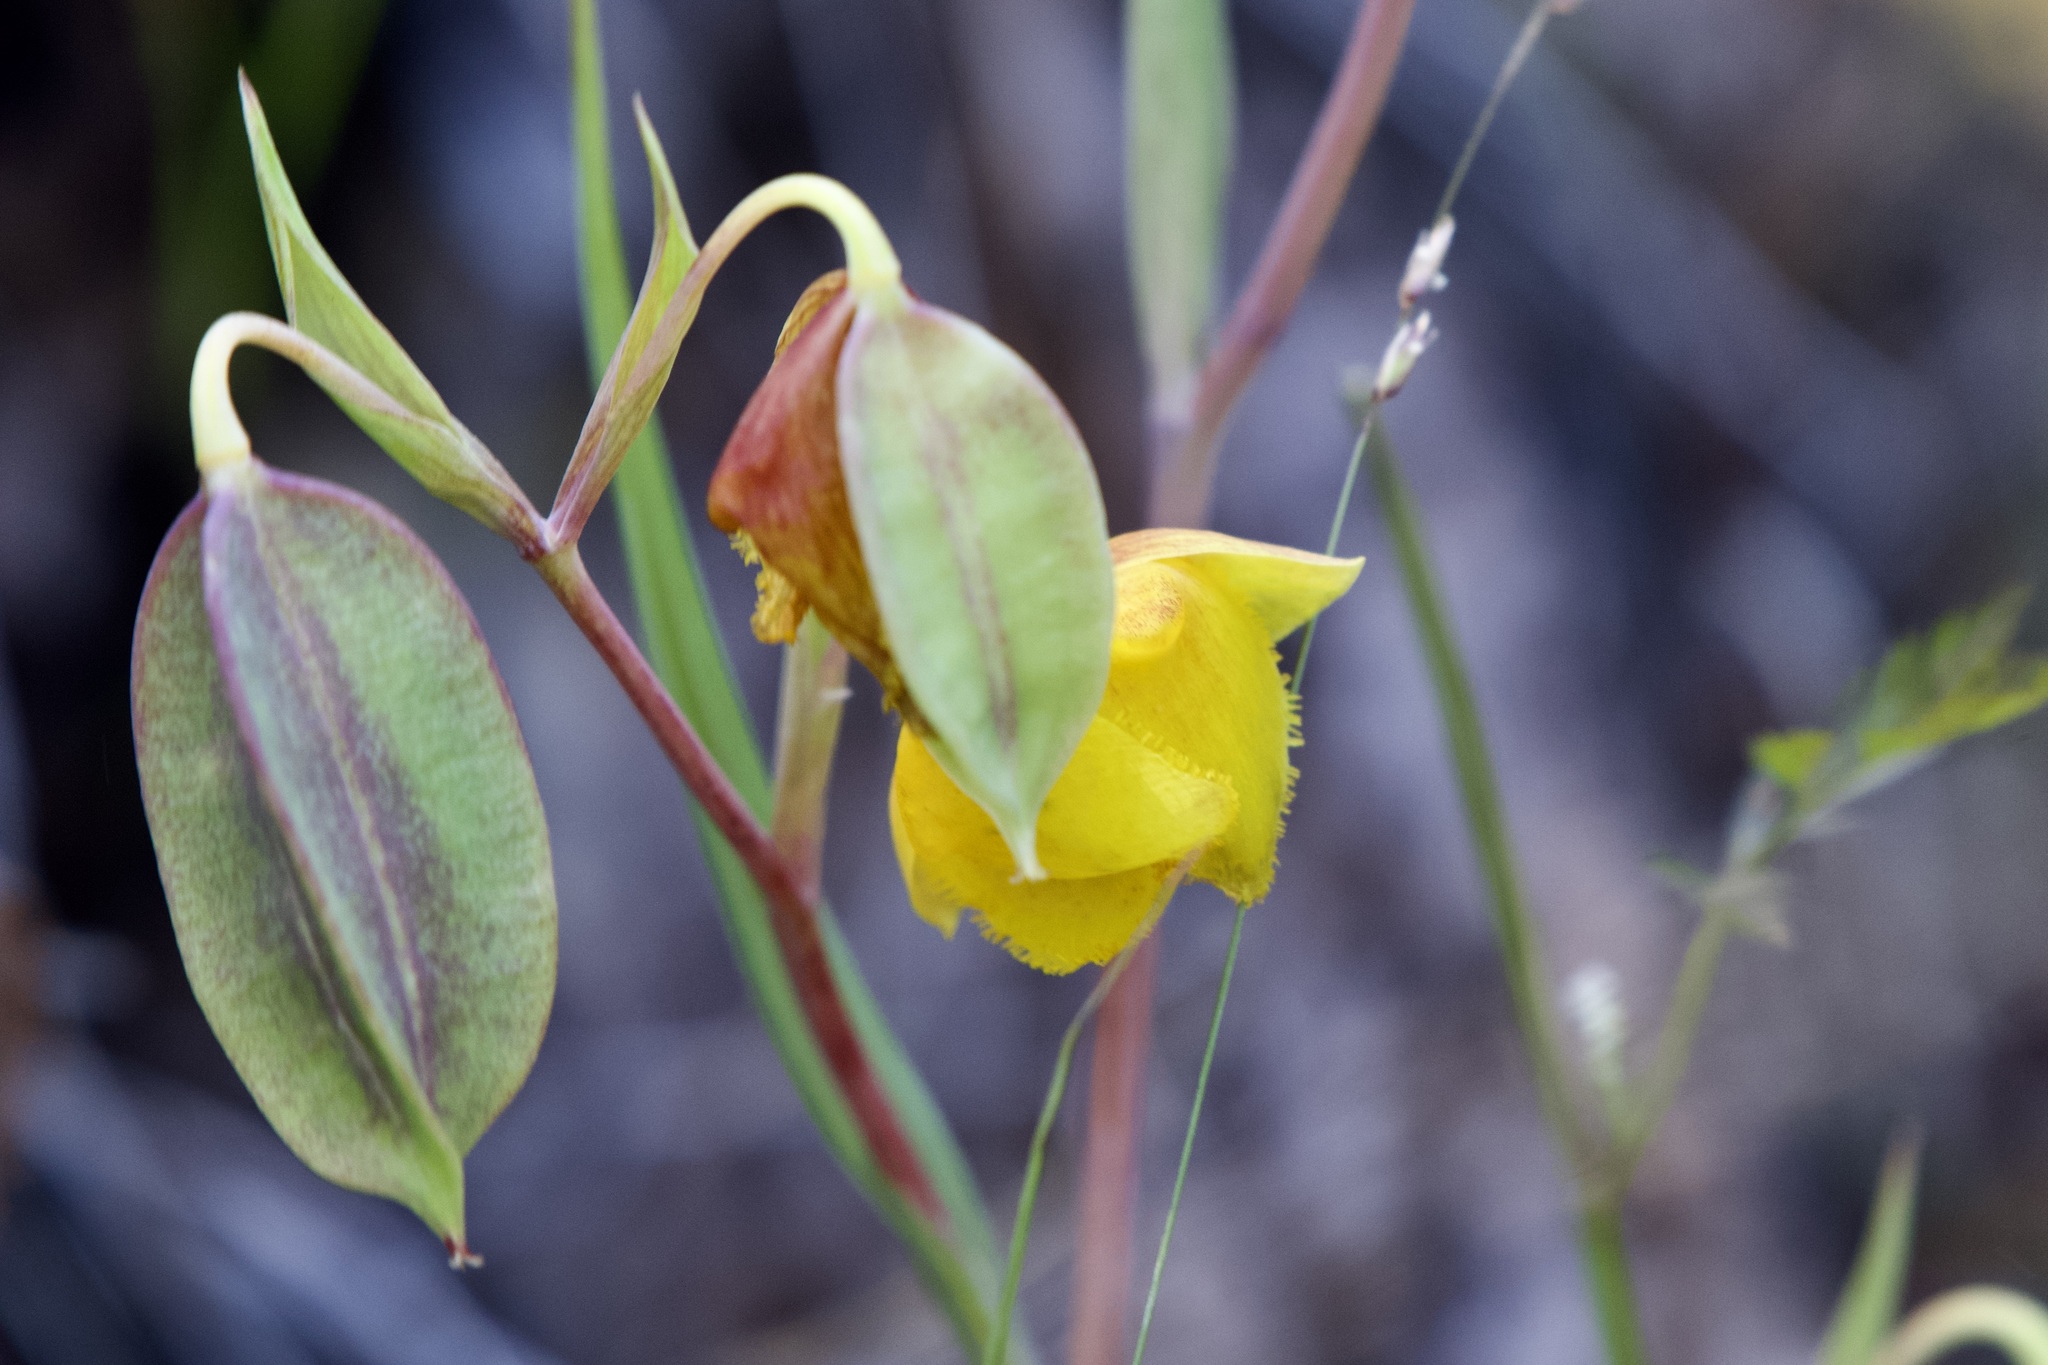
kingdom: Plantae
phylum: Tracheophyta
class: Liliopsida
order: Liliales
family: Liliaceae
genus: Calochortus
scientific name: Calochortus pulchellus
